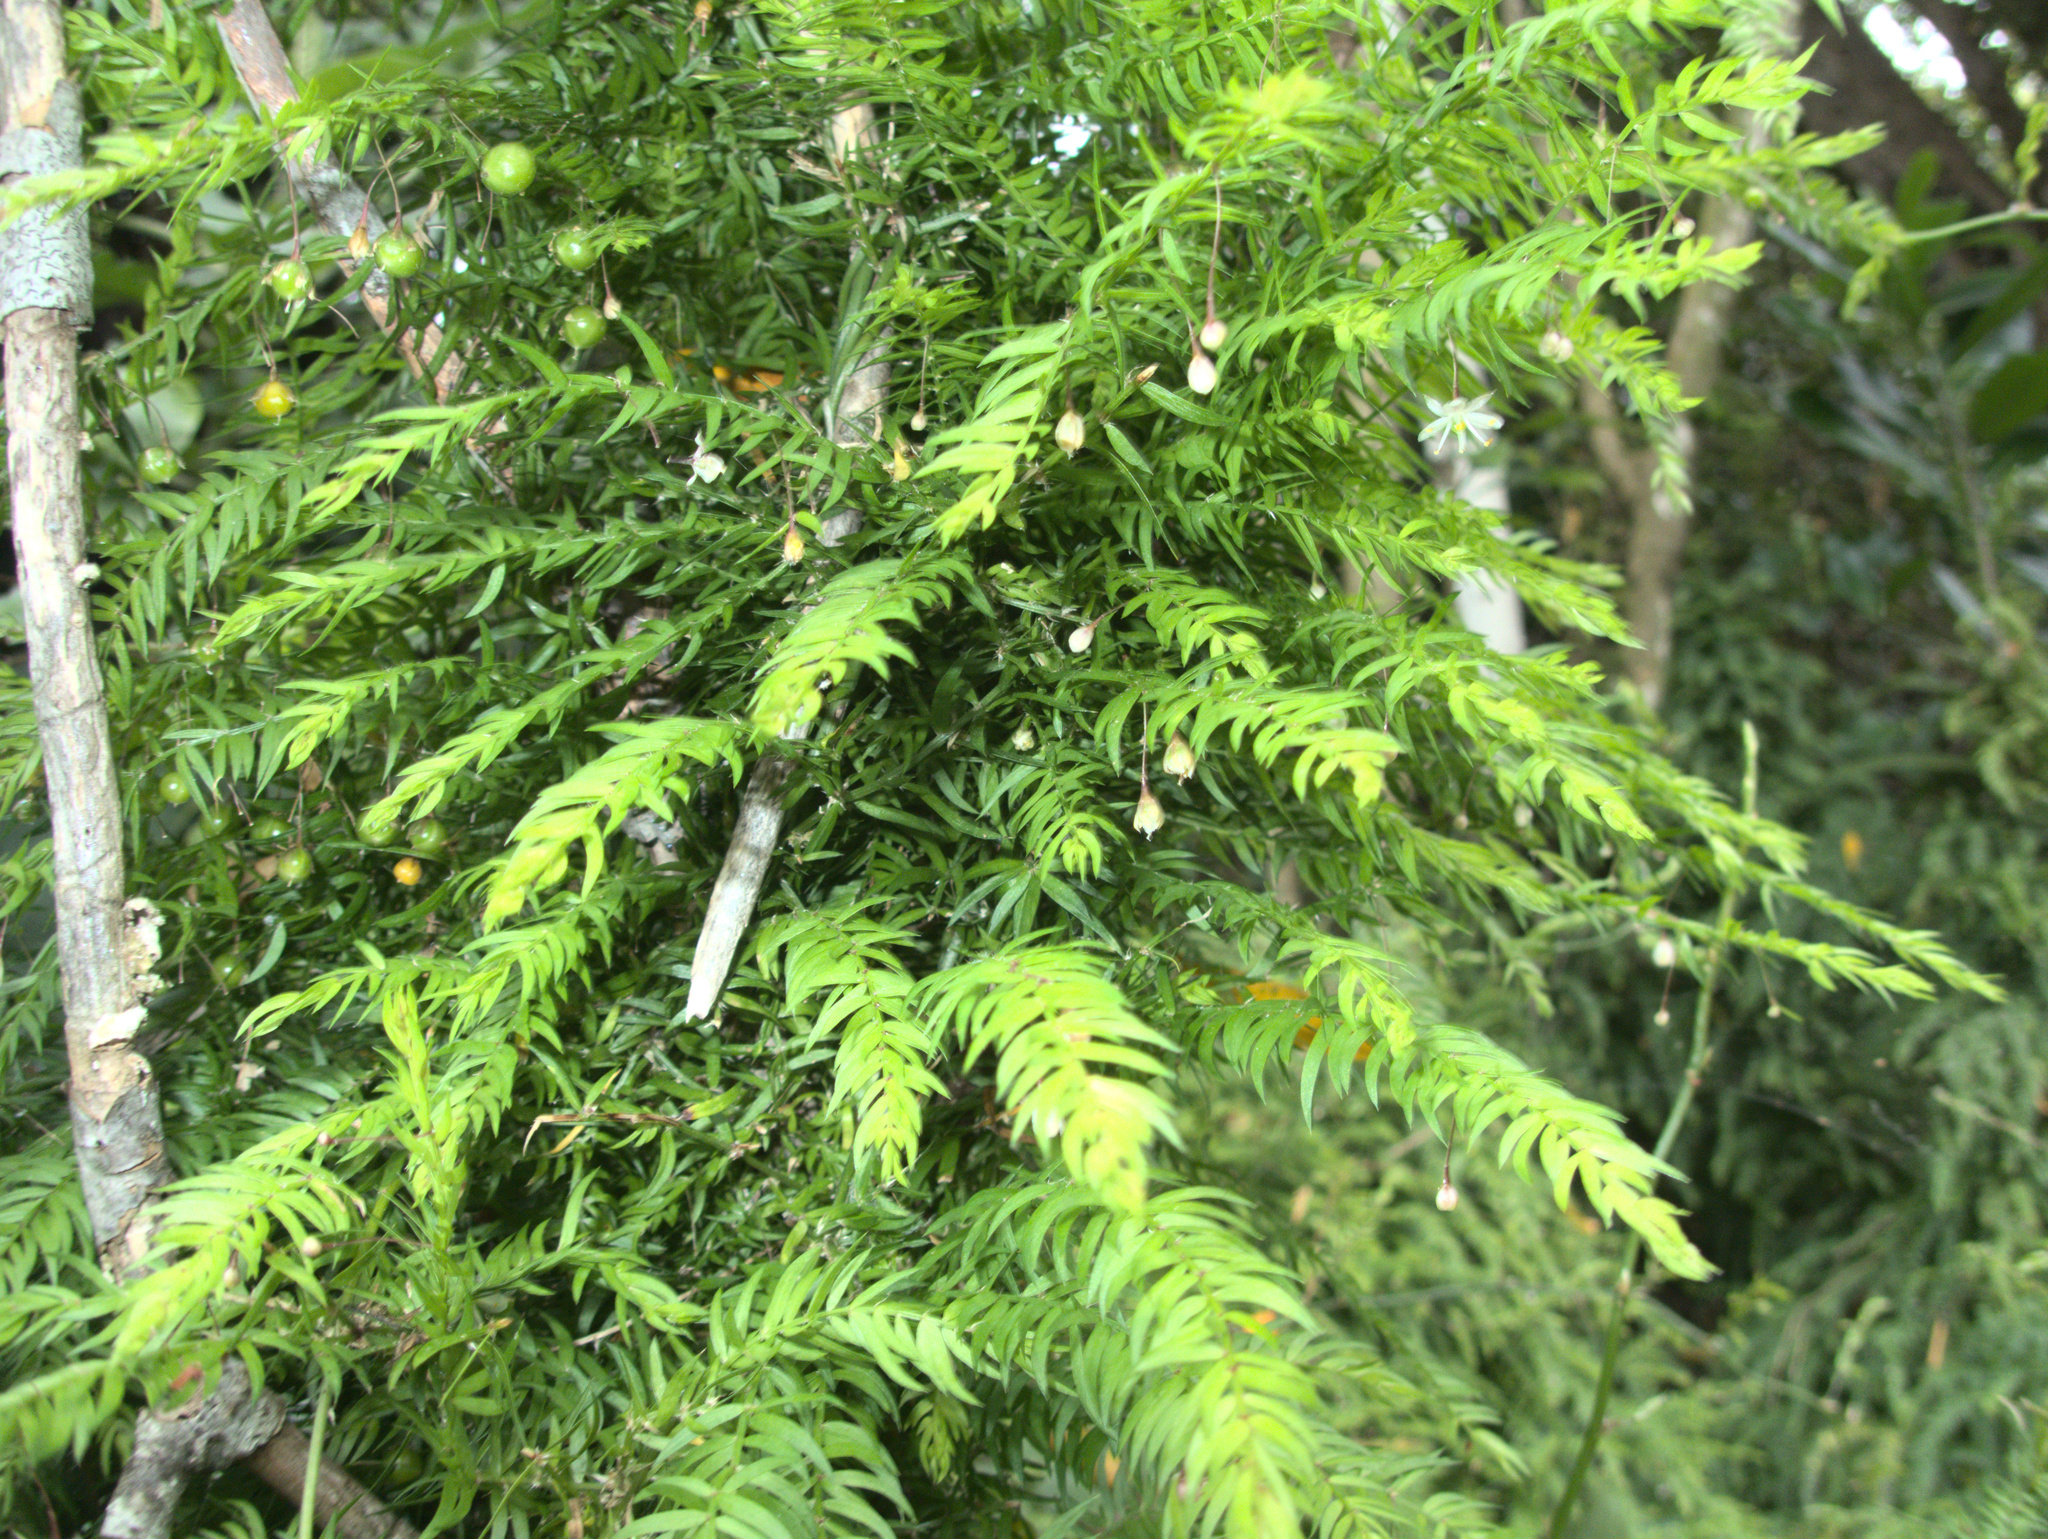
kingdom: Plantae
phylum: Tracheophyta
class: Liliopsida
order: Asparagales
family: Asparagaceae
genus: Asparagus
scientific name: Asparagus scandens
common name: Asparagus-fern
